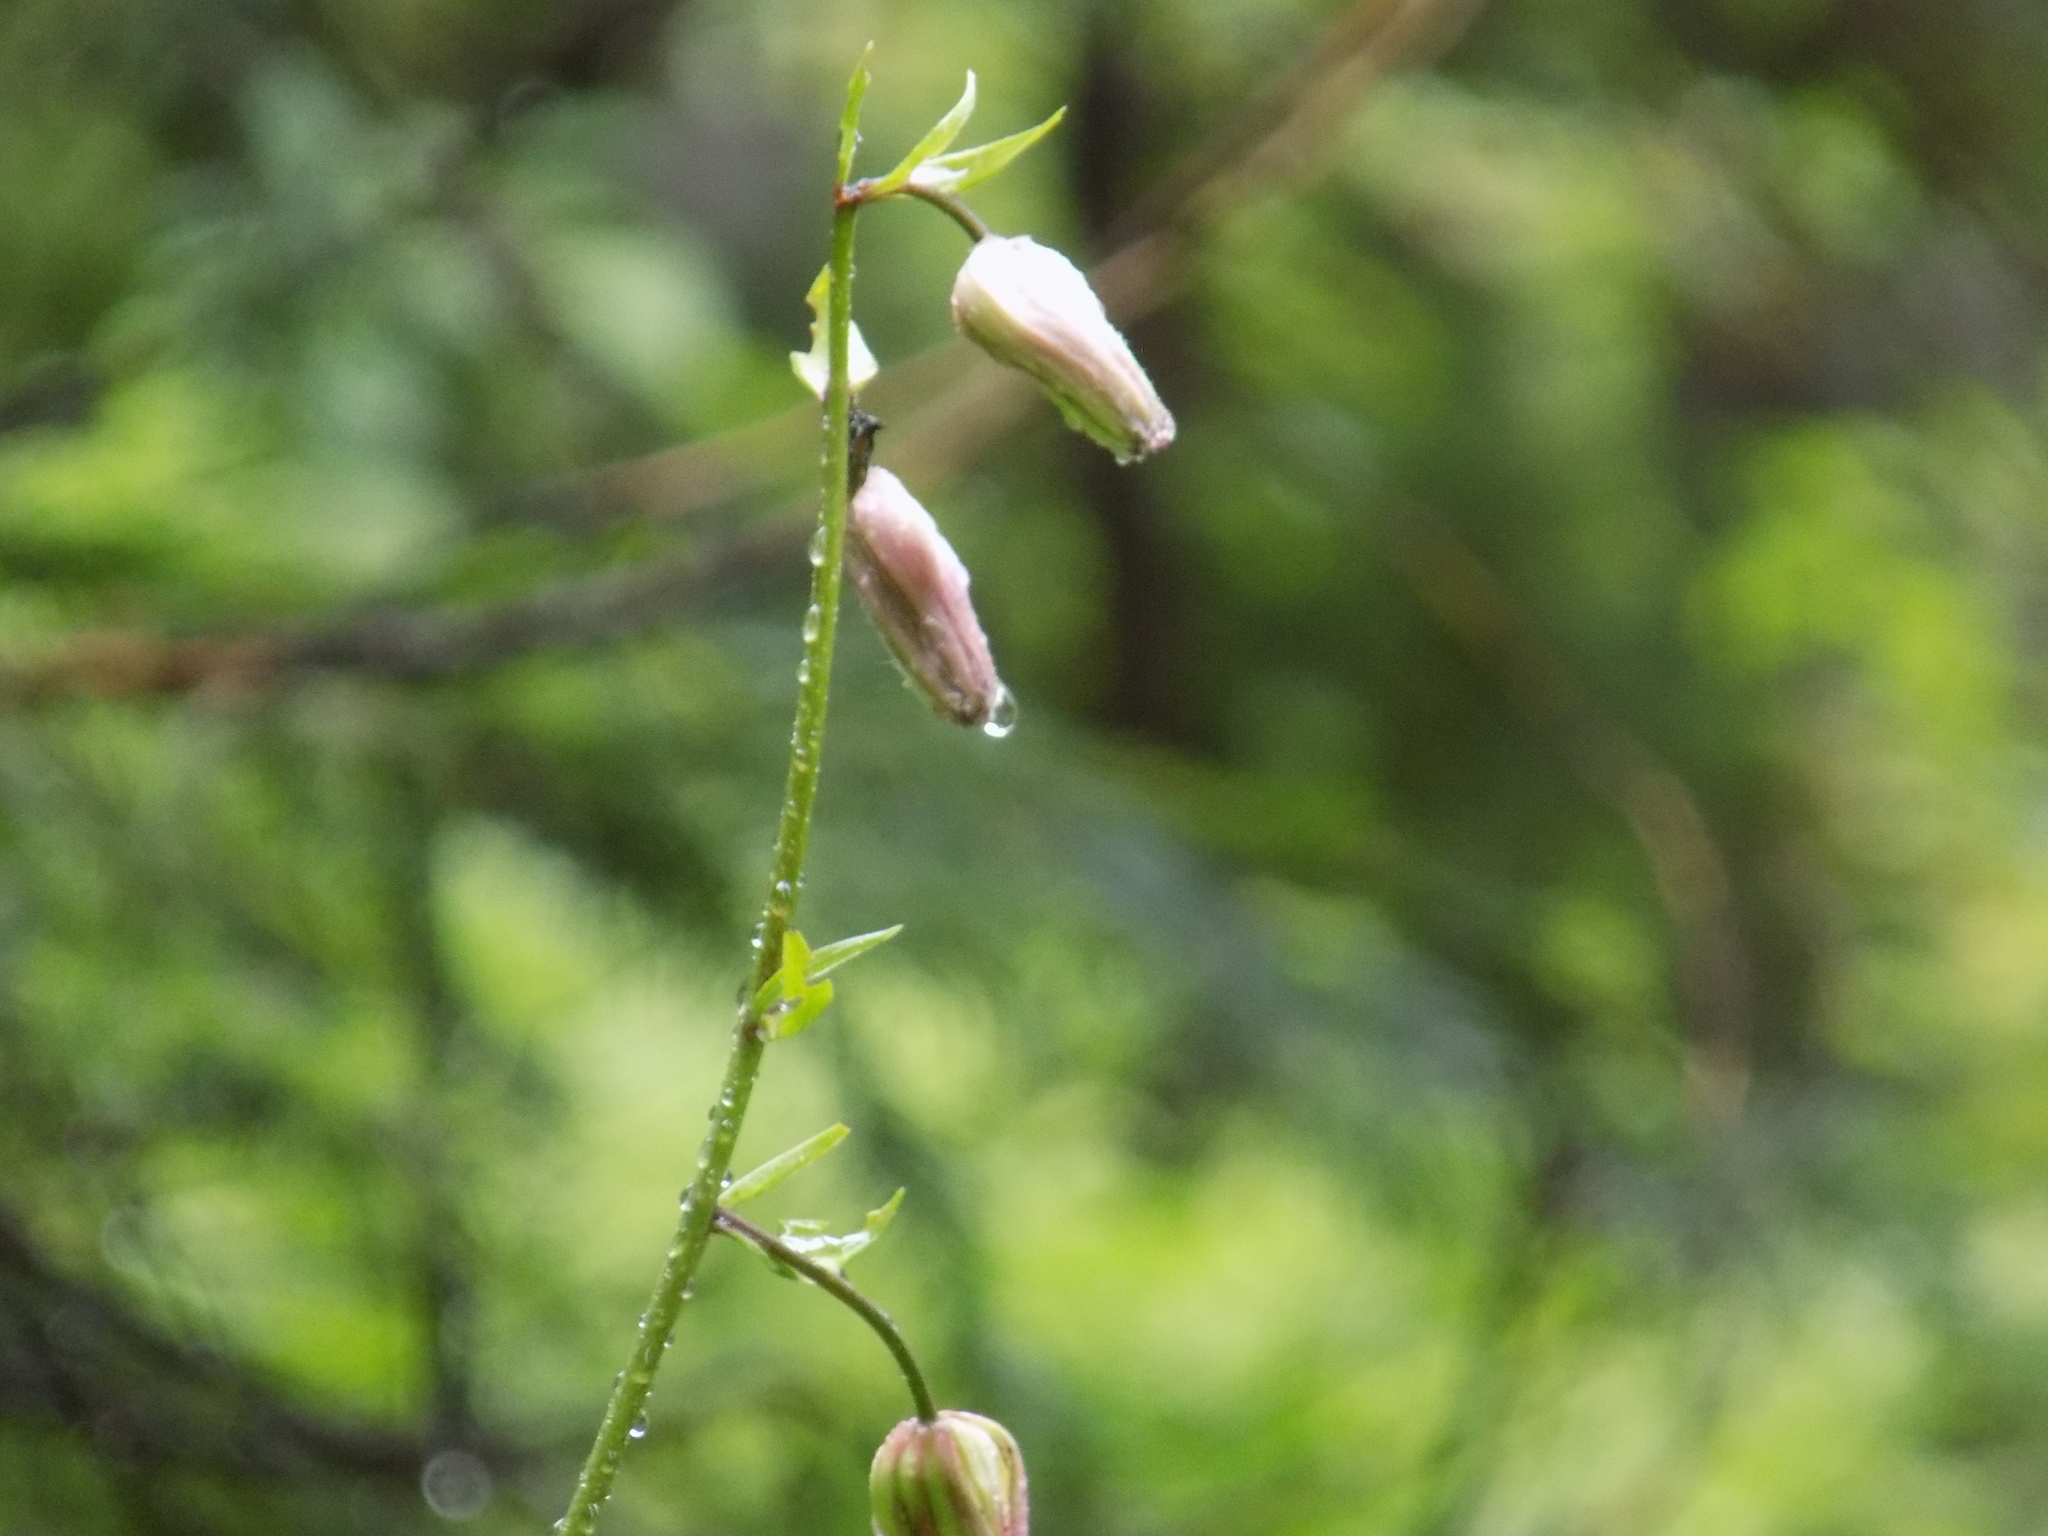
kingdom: Plantae
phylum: Tracheophyta
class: Liliopsida
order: Liliales
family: Liliaceae
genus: Lilium
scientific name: Lilium martagon
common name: Martagon lily
